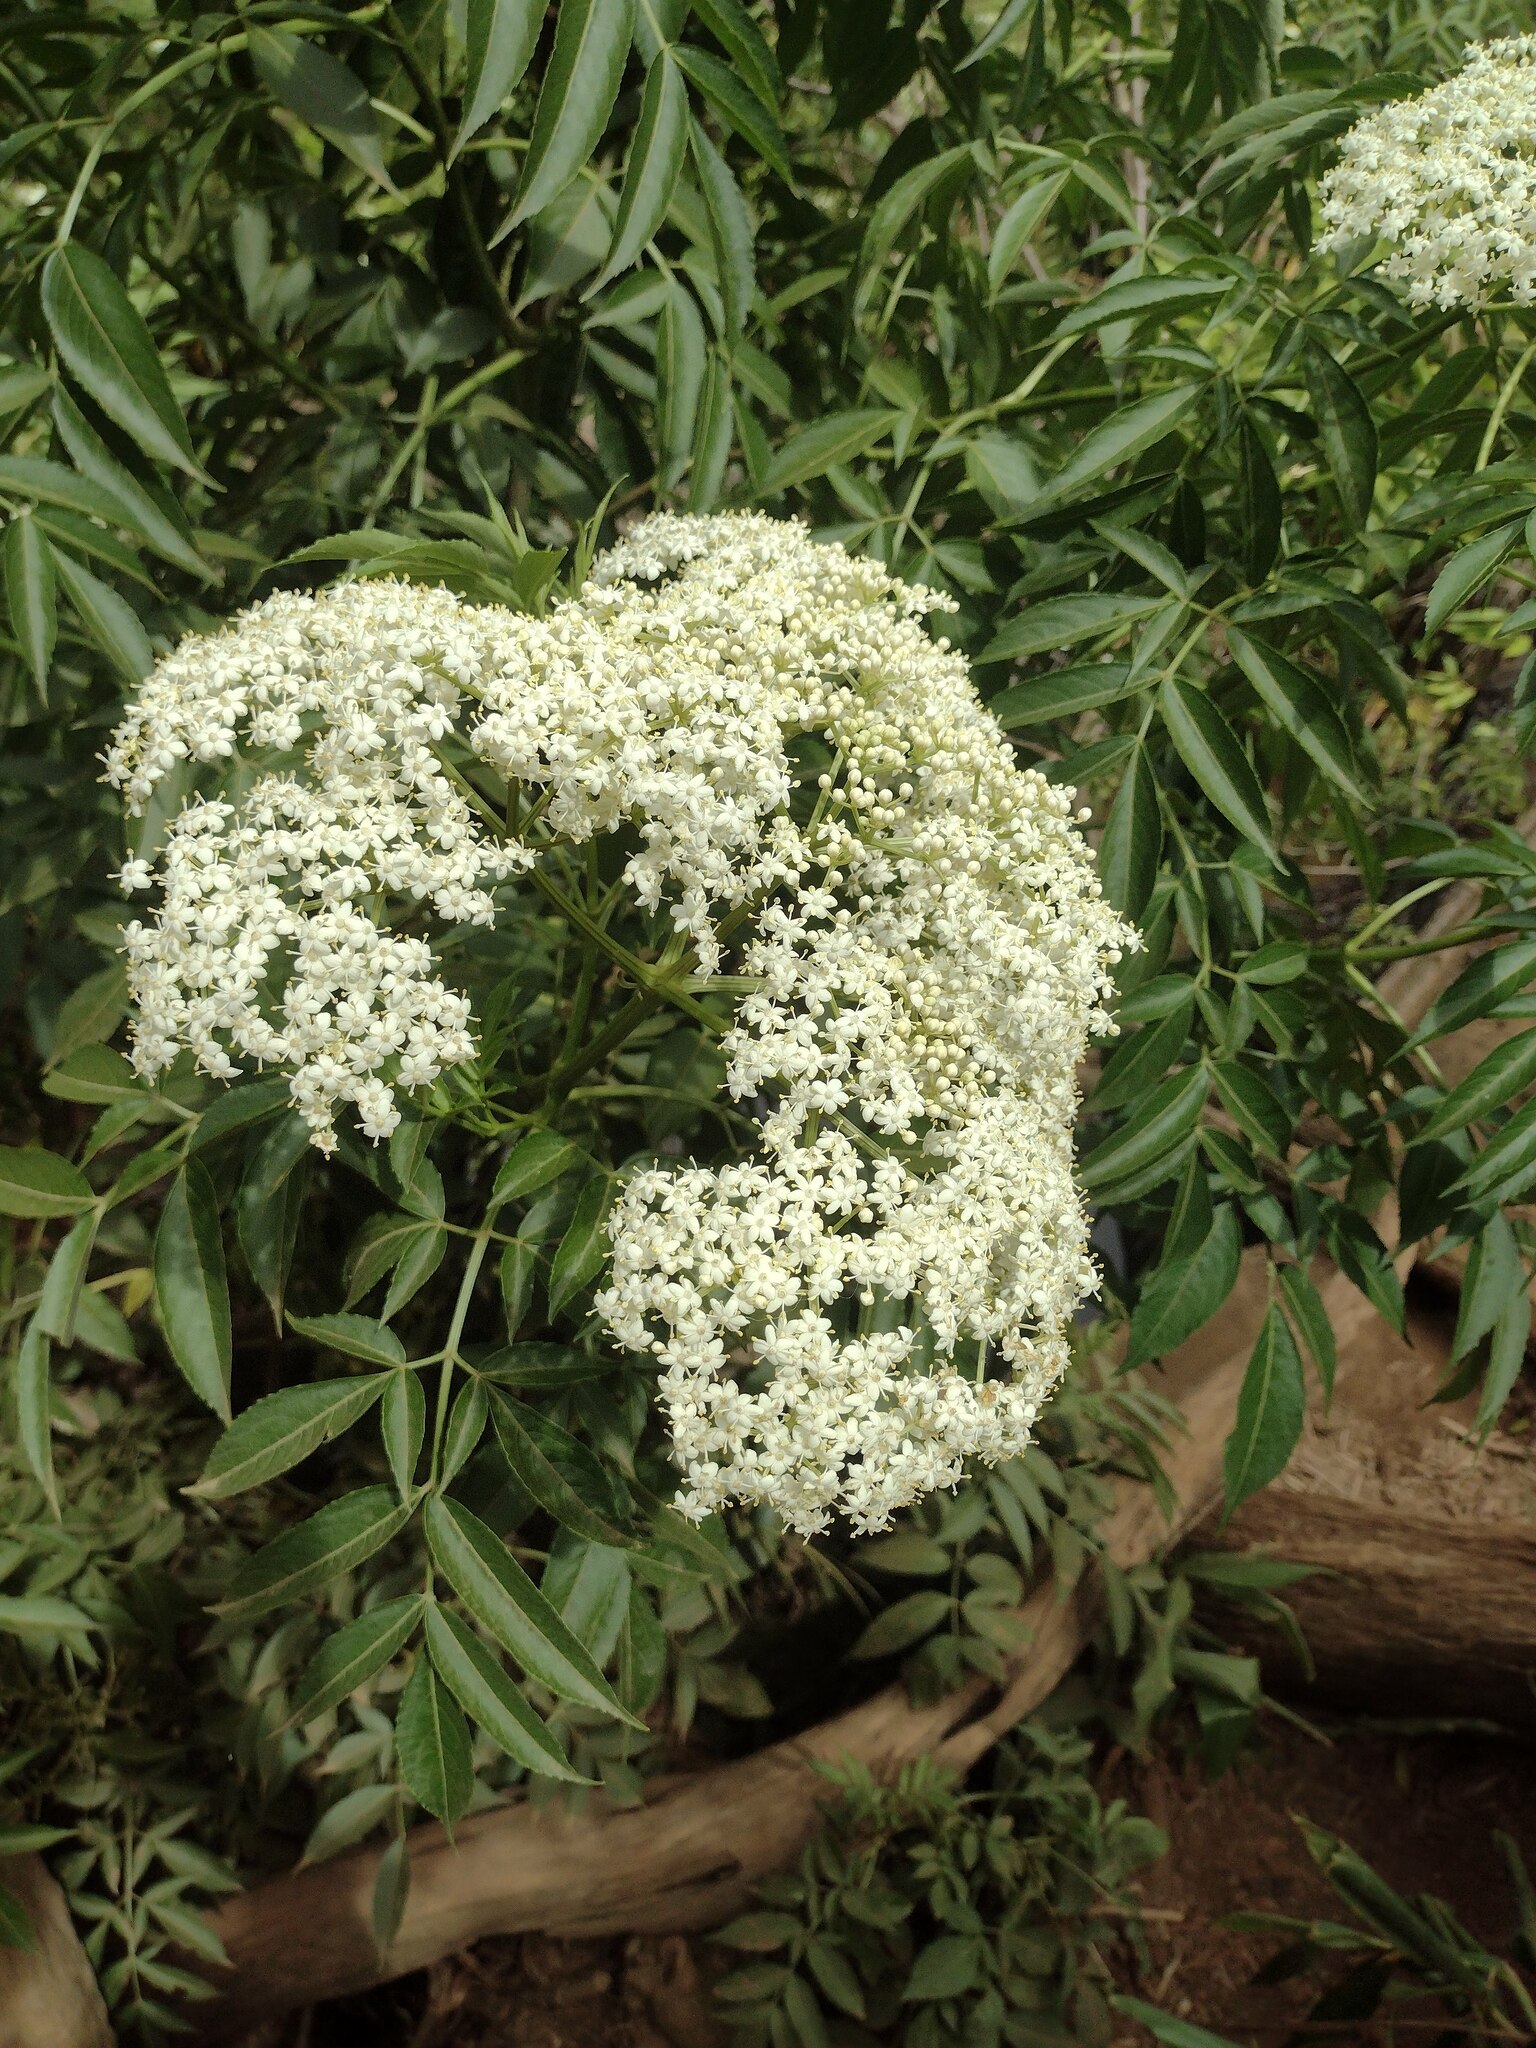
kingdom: Plantae
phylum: Tracheophyta
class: Magnoliopsida
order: Dipsacales
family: Viburnaceae
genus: Sambucus
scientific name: Sambucus canadensis
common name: American elder
